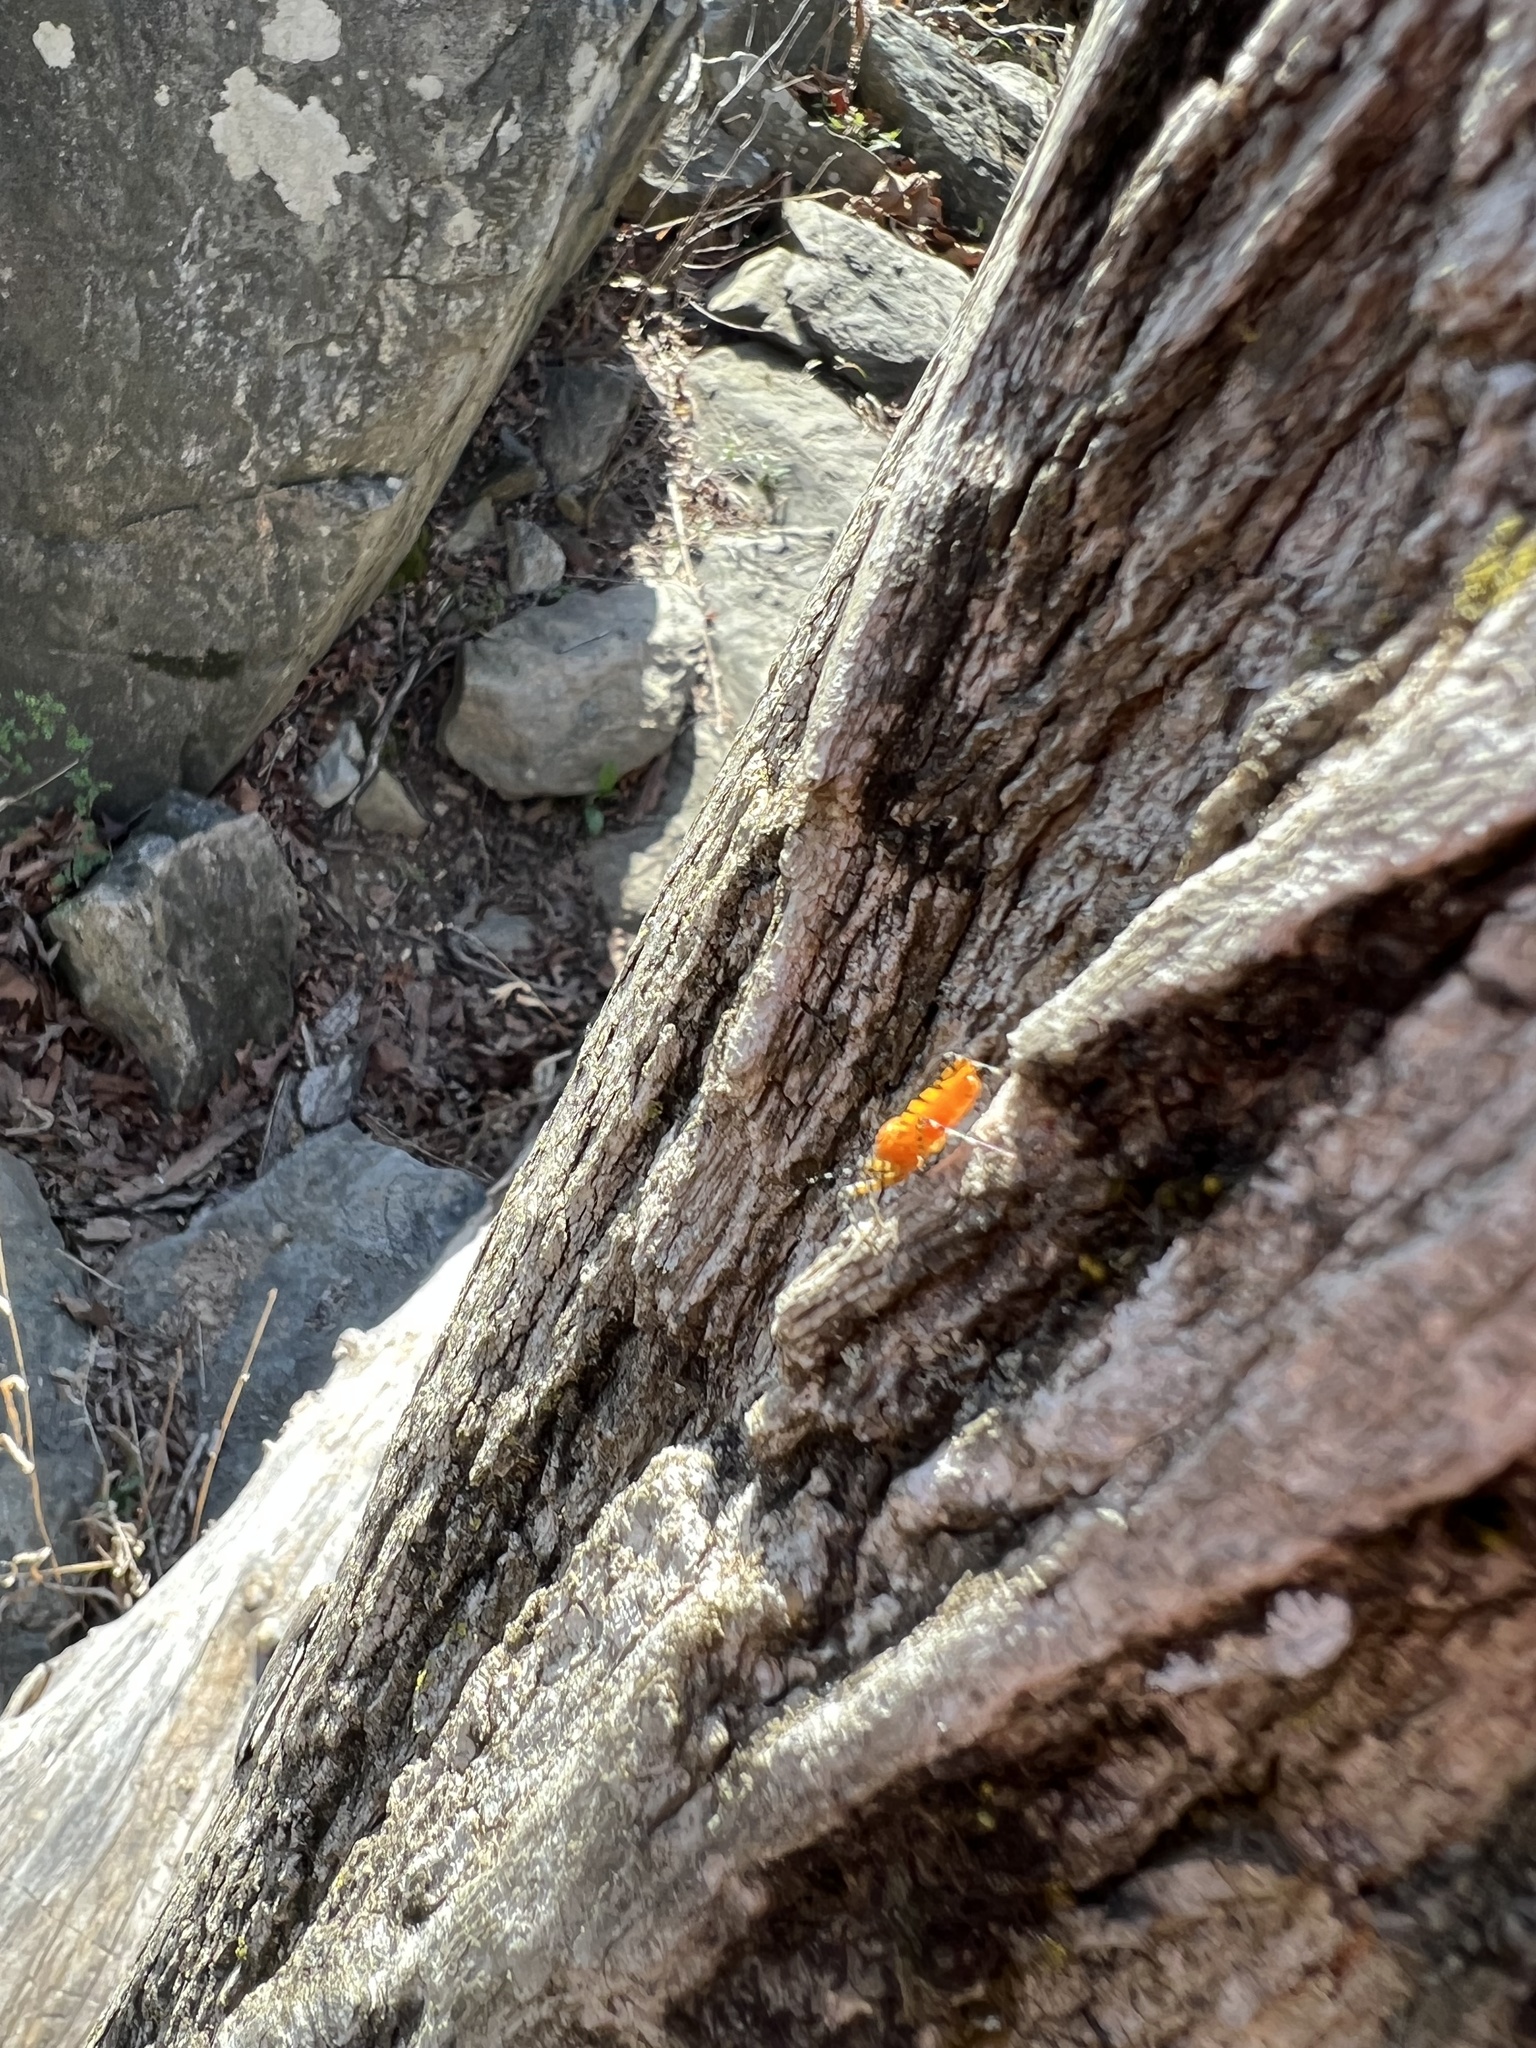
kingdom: Animalia
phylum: Arthropoda
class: Insecta
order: Hemiptera
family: Reduviidae
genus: Pselliopus
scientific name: Pselliopus barberi
